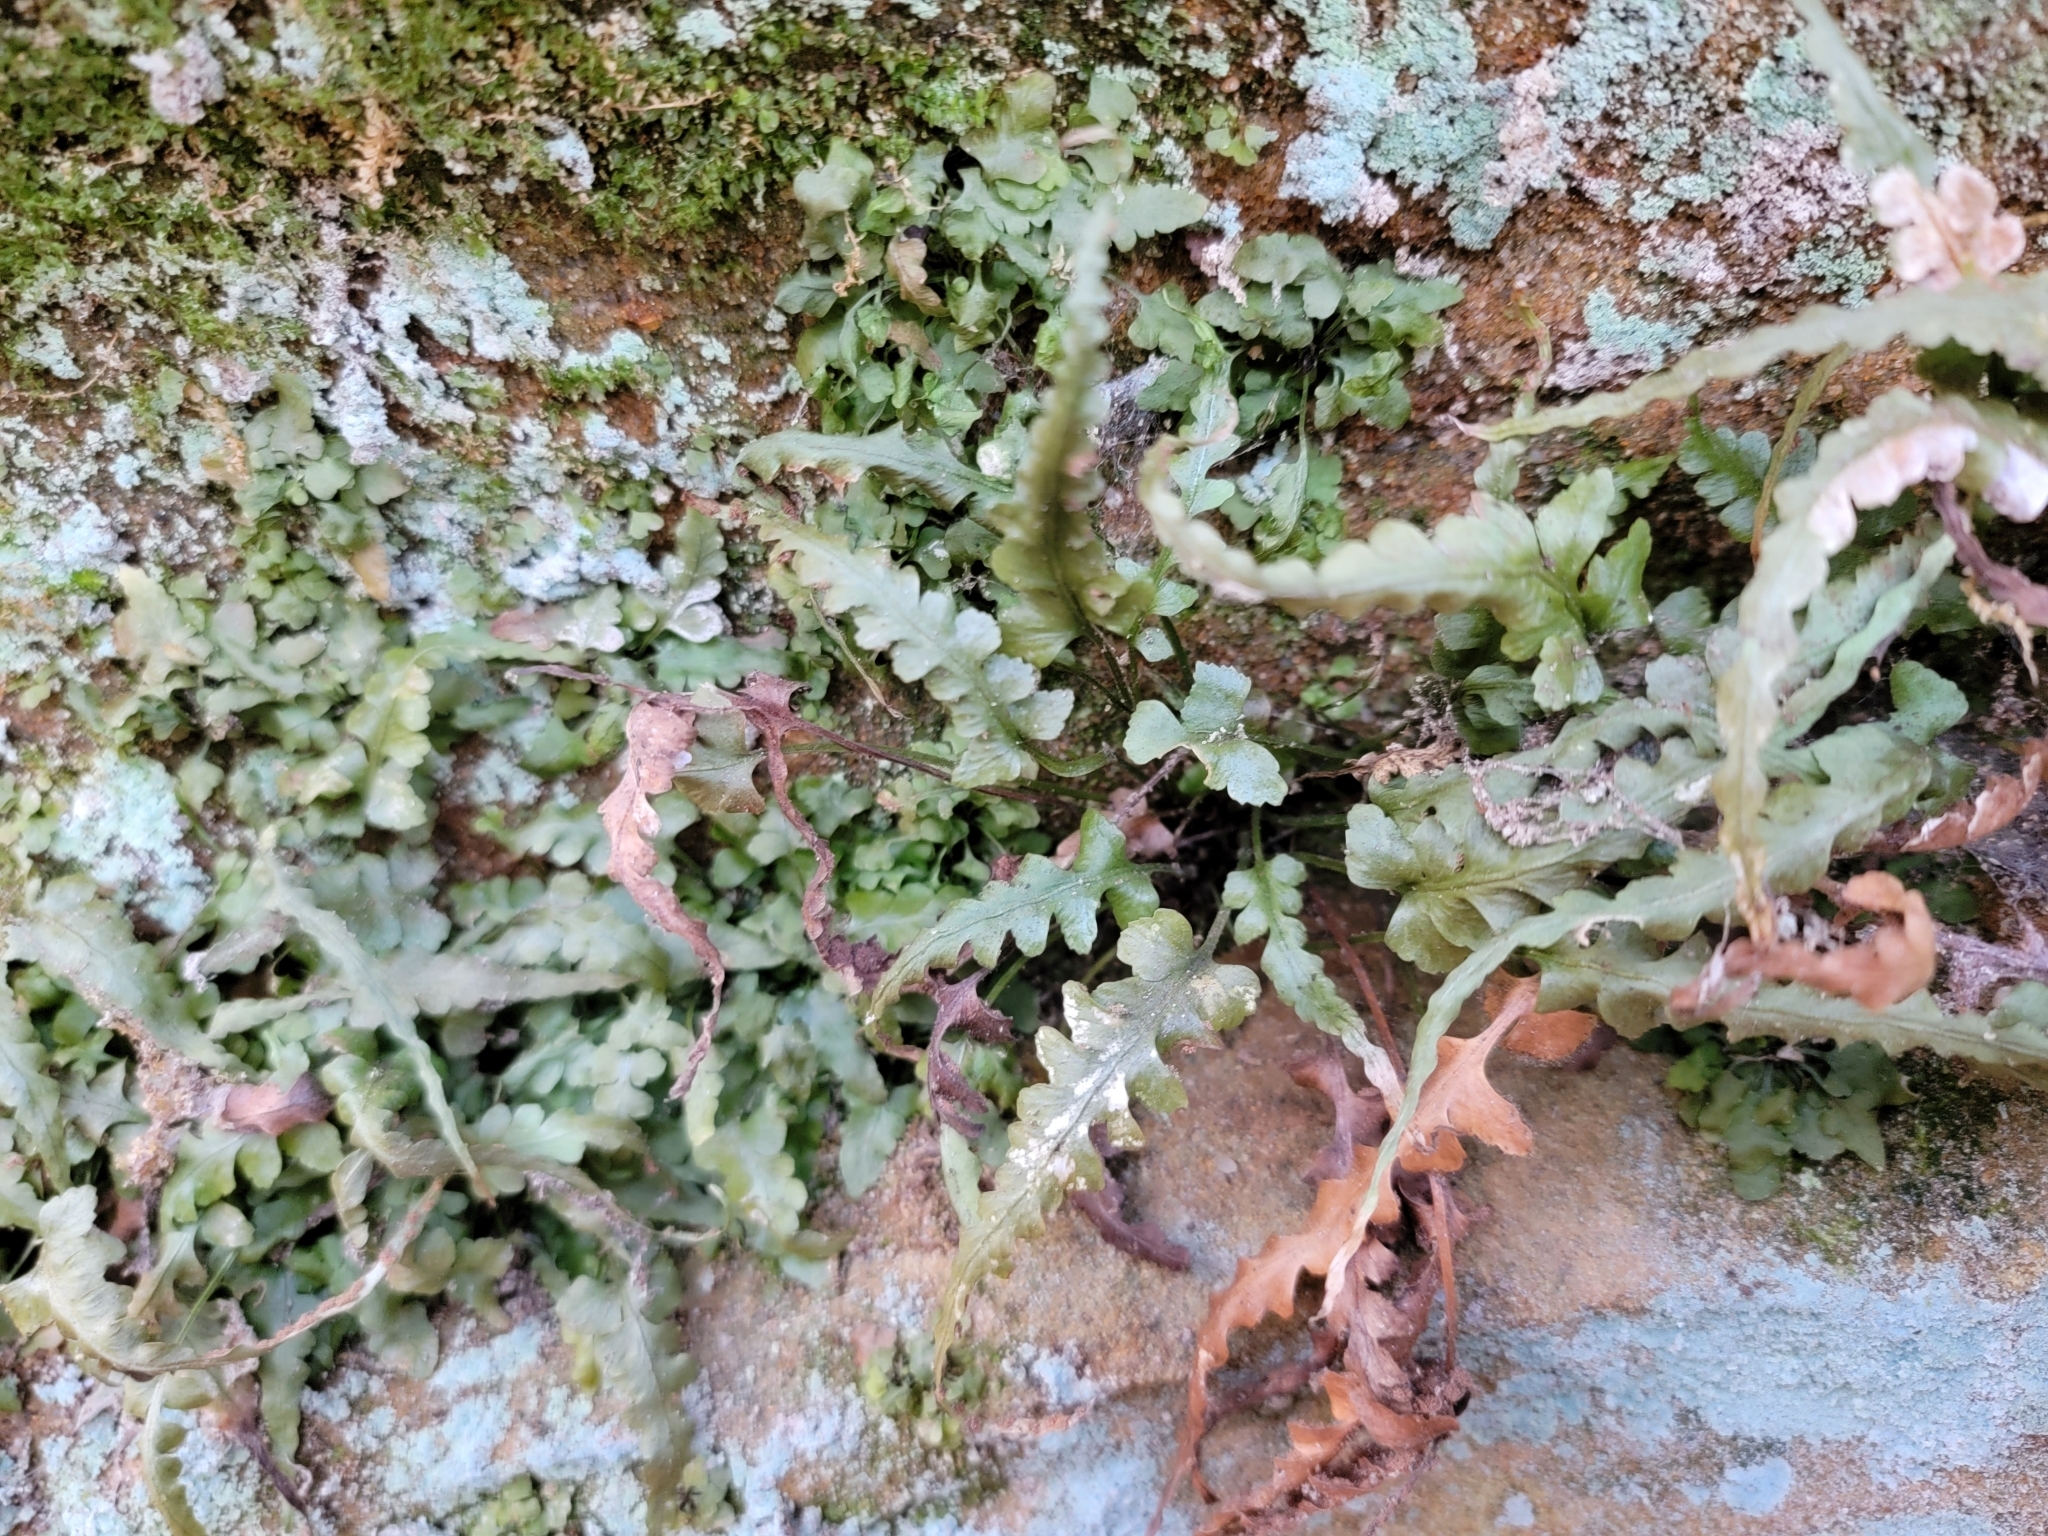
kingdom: Plantae
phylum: Tracheophyta
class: Polypodiopsida
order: Polypodiales
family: Aspleniaceae
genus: Asplenium
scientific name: Asplenium pinnatifidum
